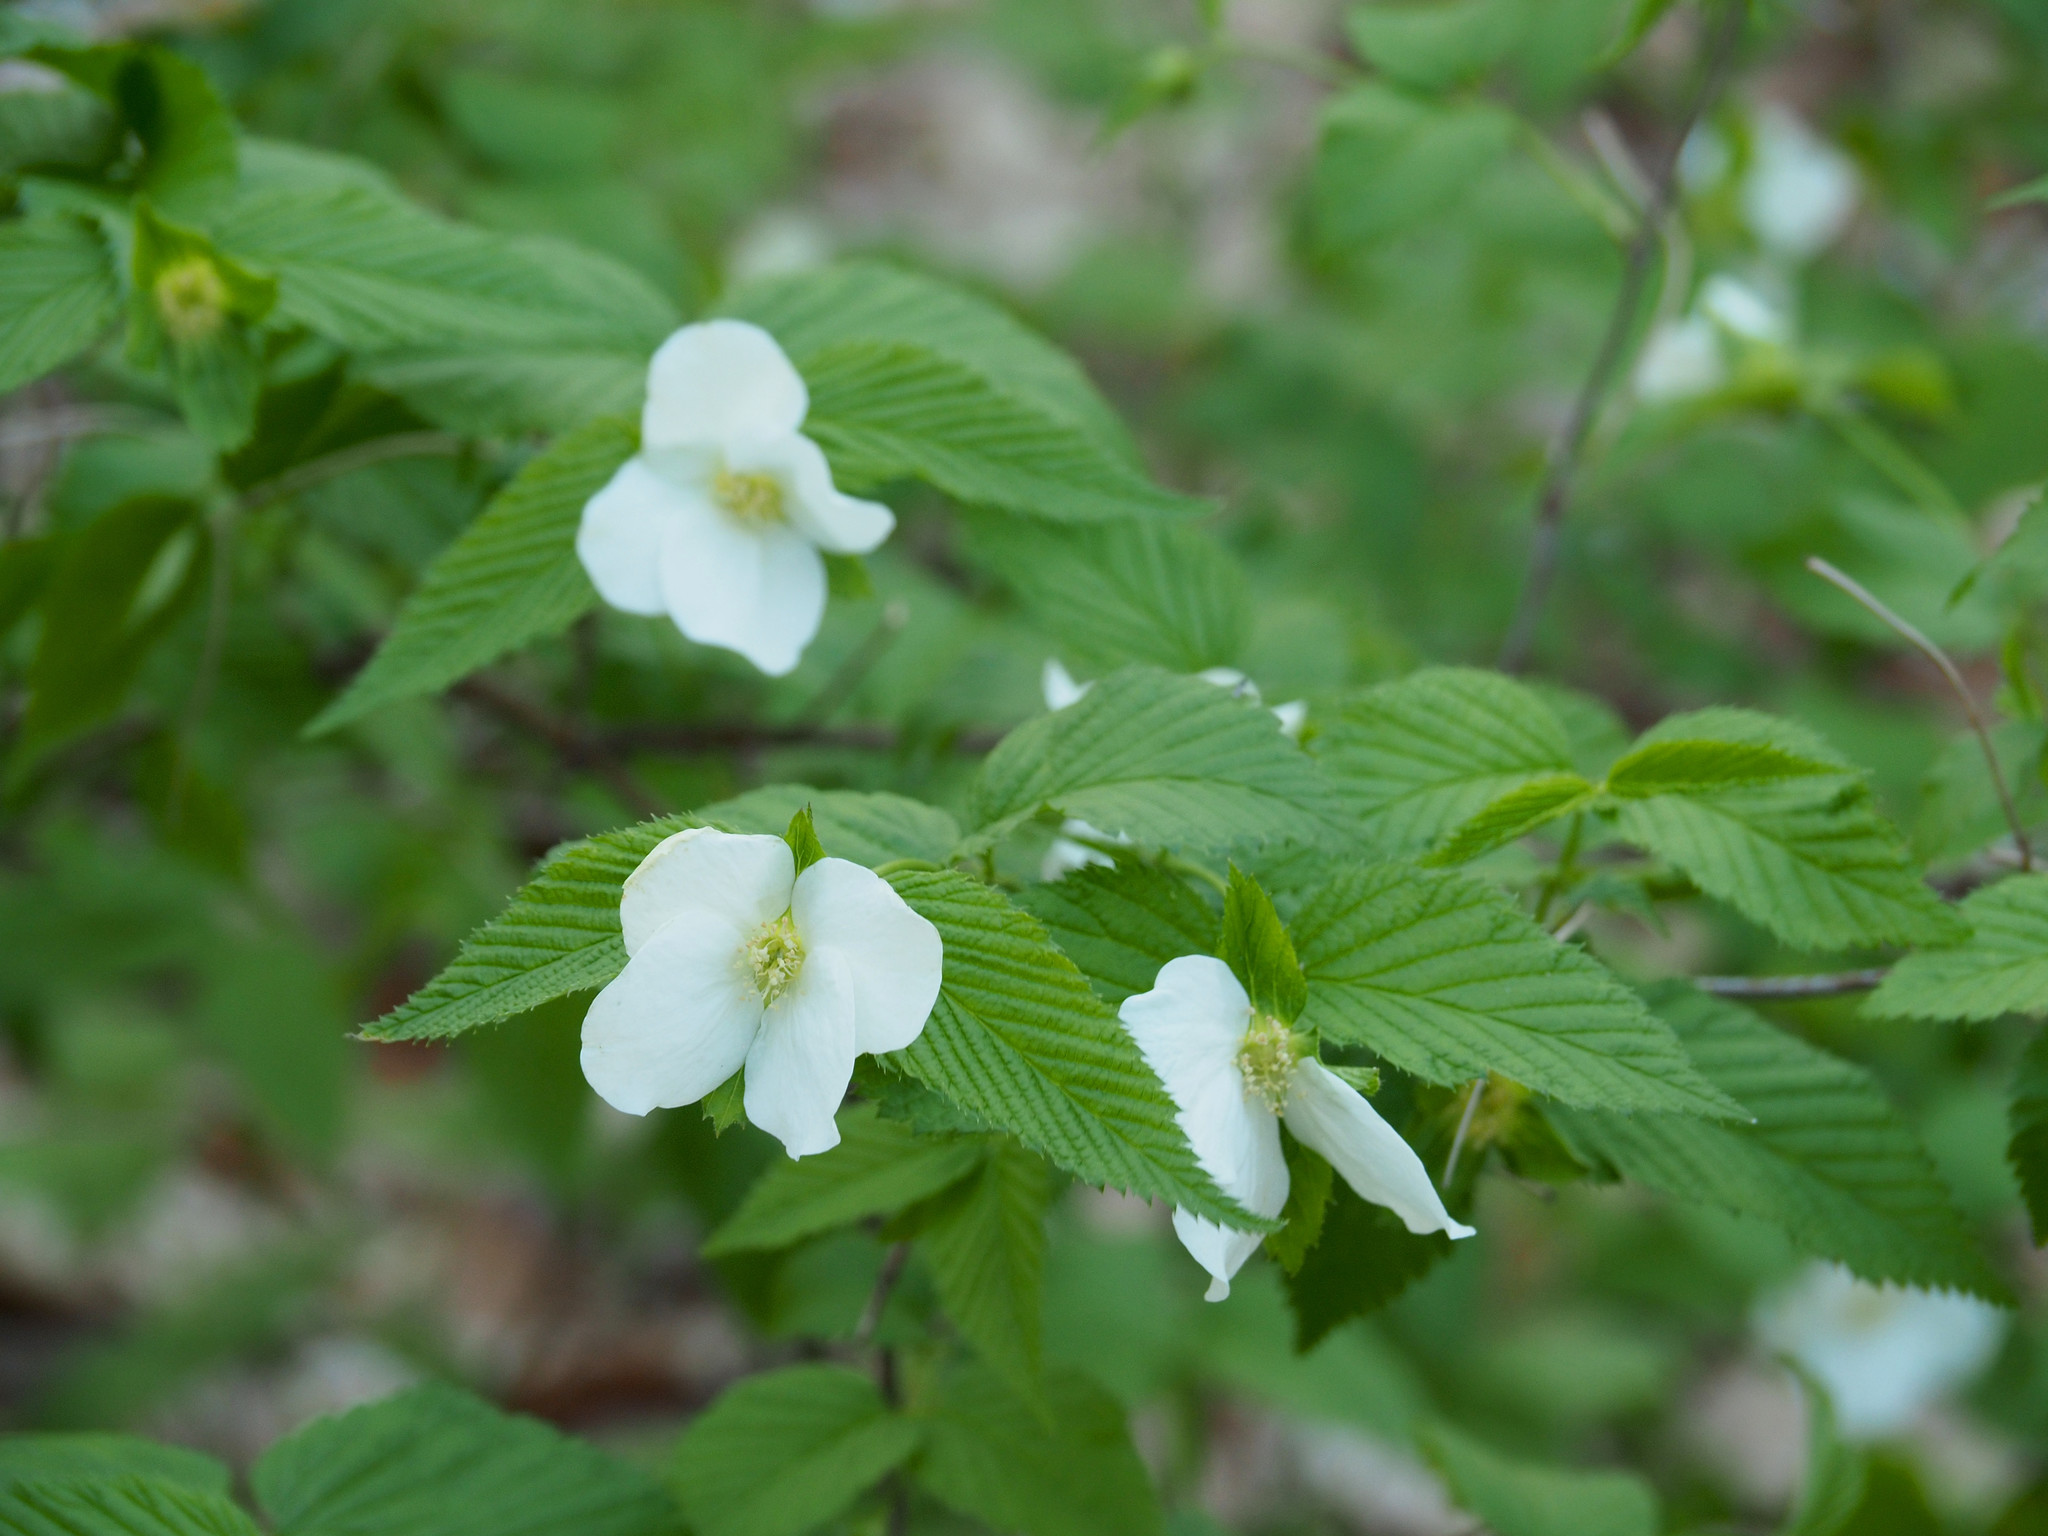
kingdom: Plantae
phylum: Tracheophyta
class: Magnoliopsida
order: Rosales
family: Rosaceae
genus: Rhodotypos
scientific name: Rhodotypos scandens
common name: Jetbead
